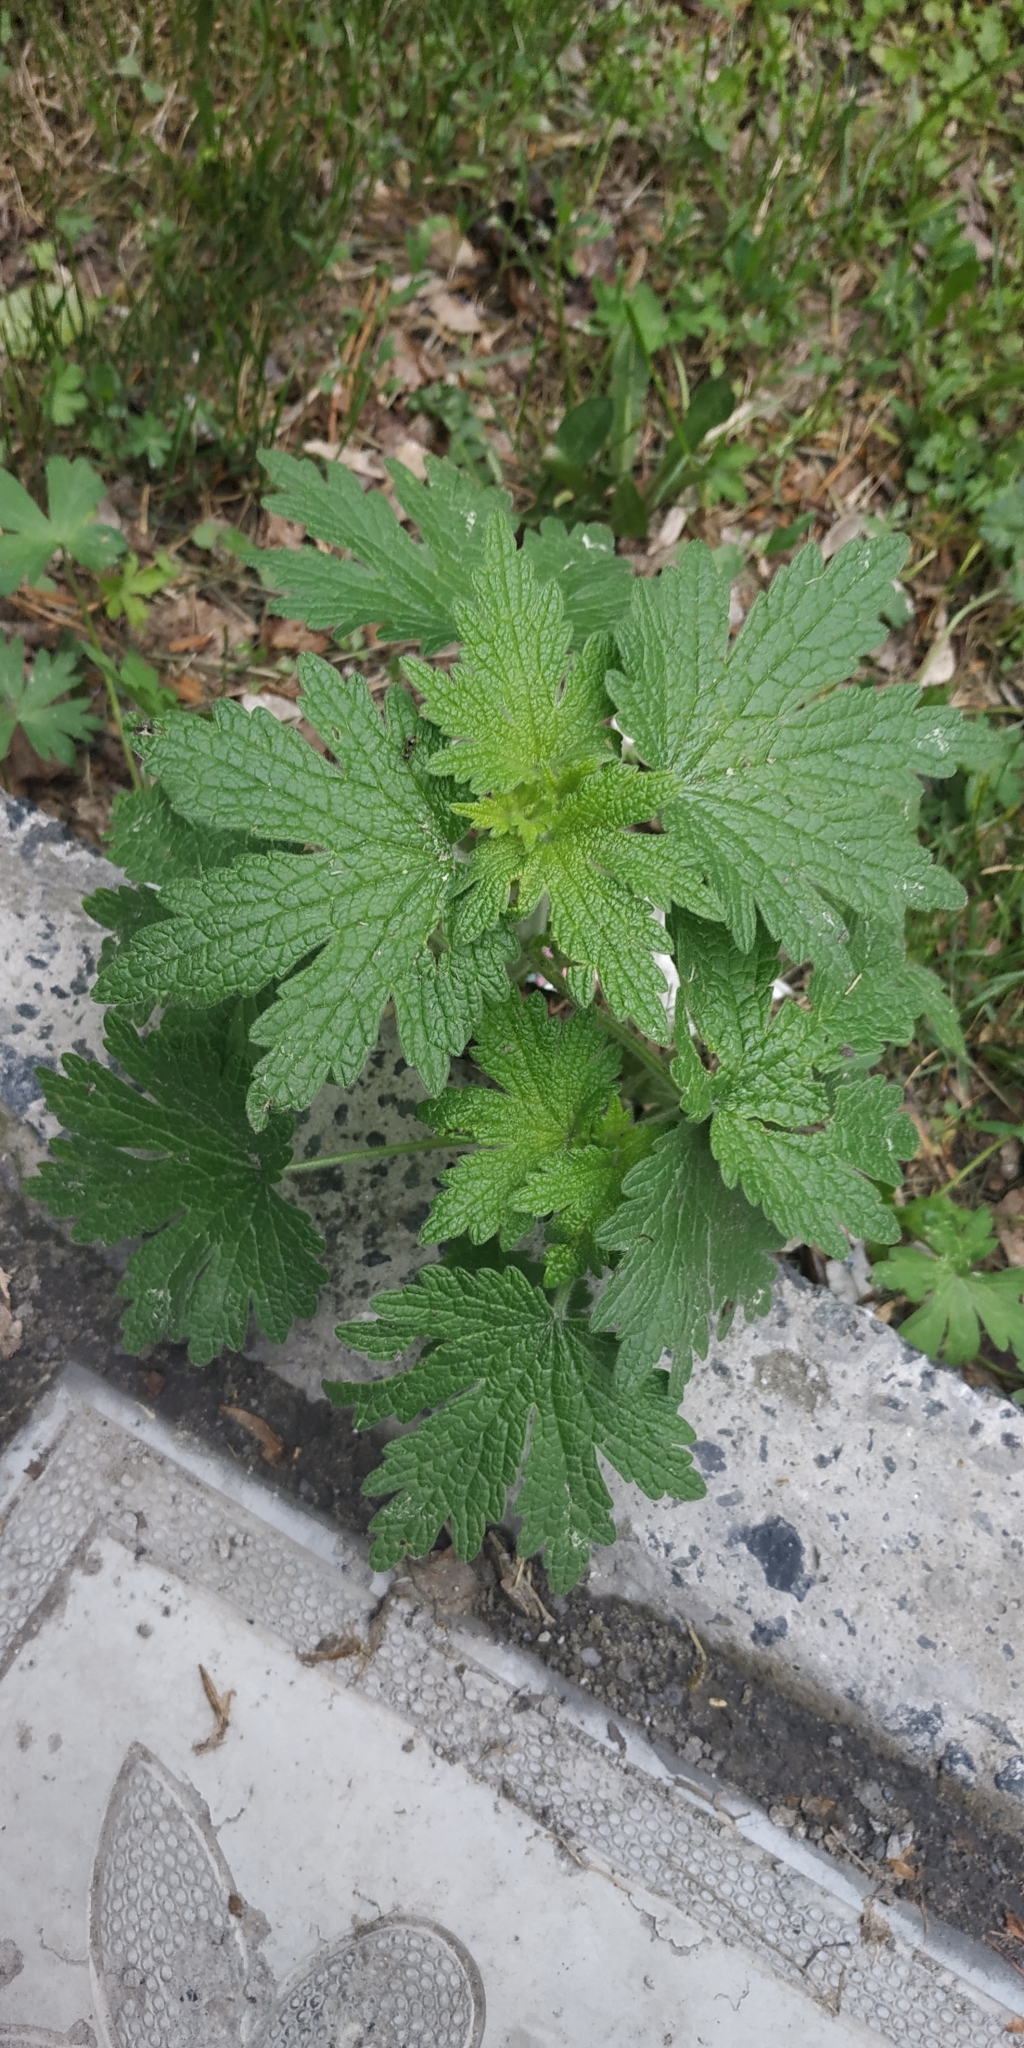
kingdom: Plantae
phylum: Tracheophyta
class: Magnoliopsida
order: Lamiales
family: Lamiaceae
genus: Leonurus
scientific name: Leonurus quinquelobatus
